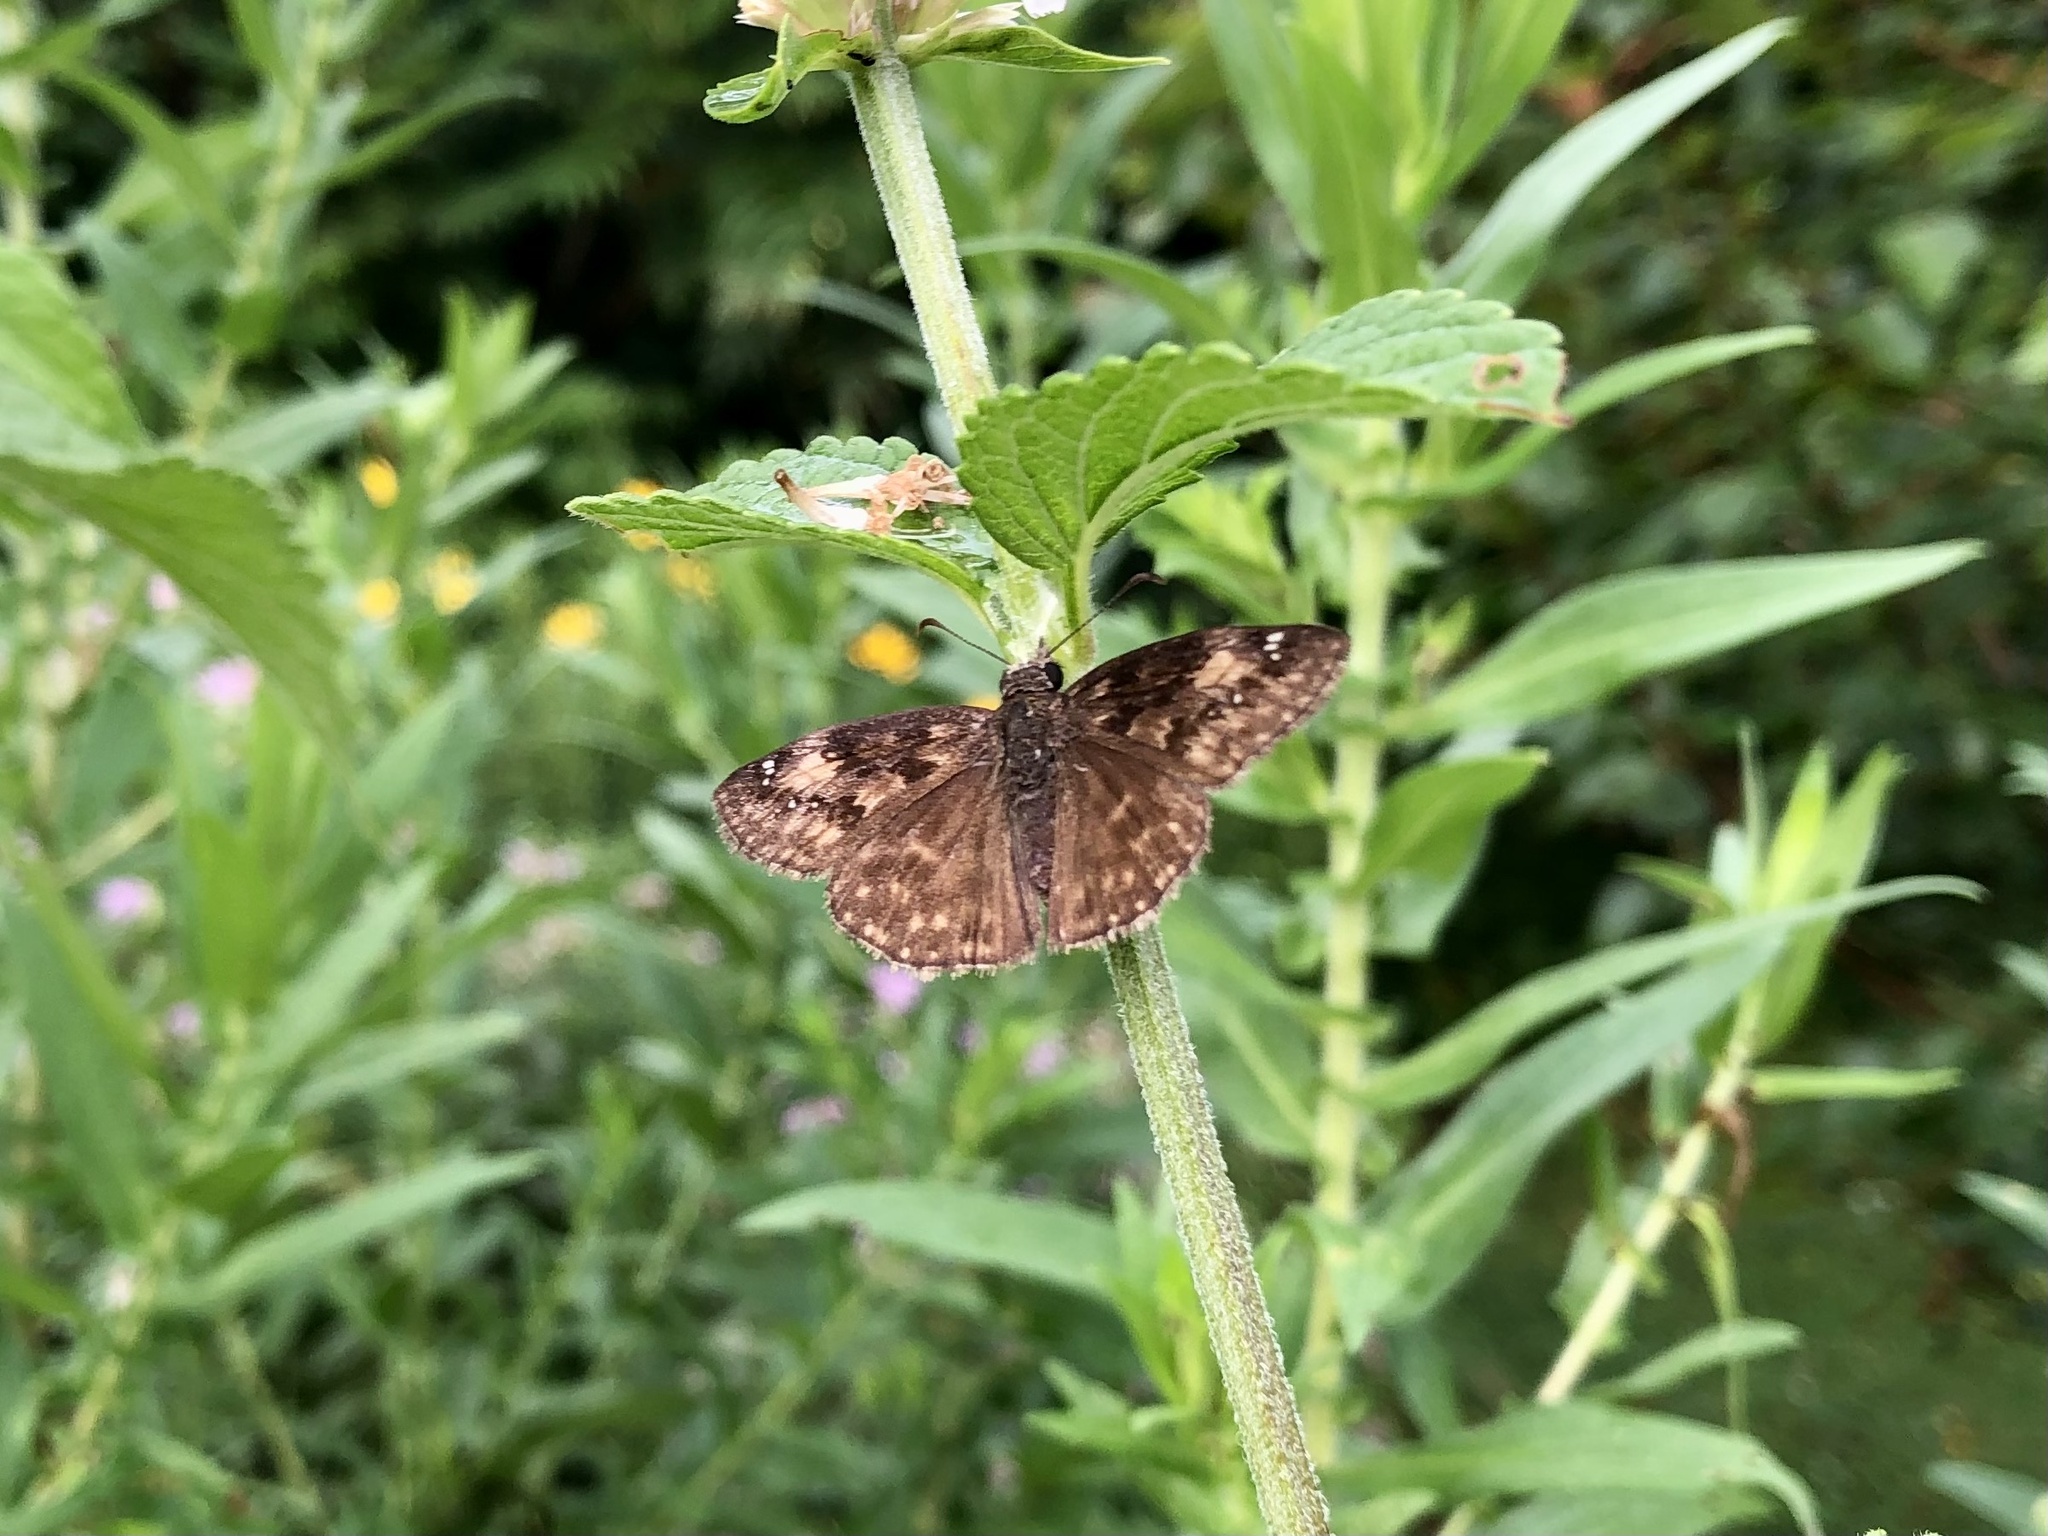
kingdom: Animalia
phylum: Arthropoda
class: Insecta
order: Lepidoptera
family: Hesperiidae
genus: Erynnis
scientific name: Erynnis baptisiae
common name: Wild indigo duskywing
